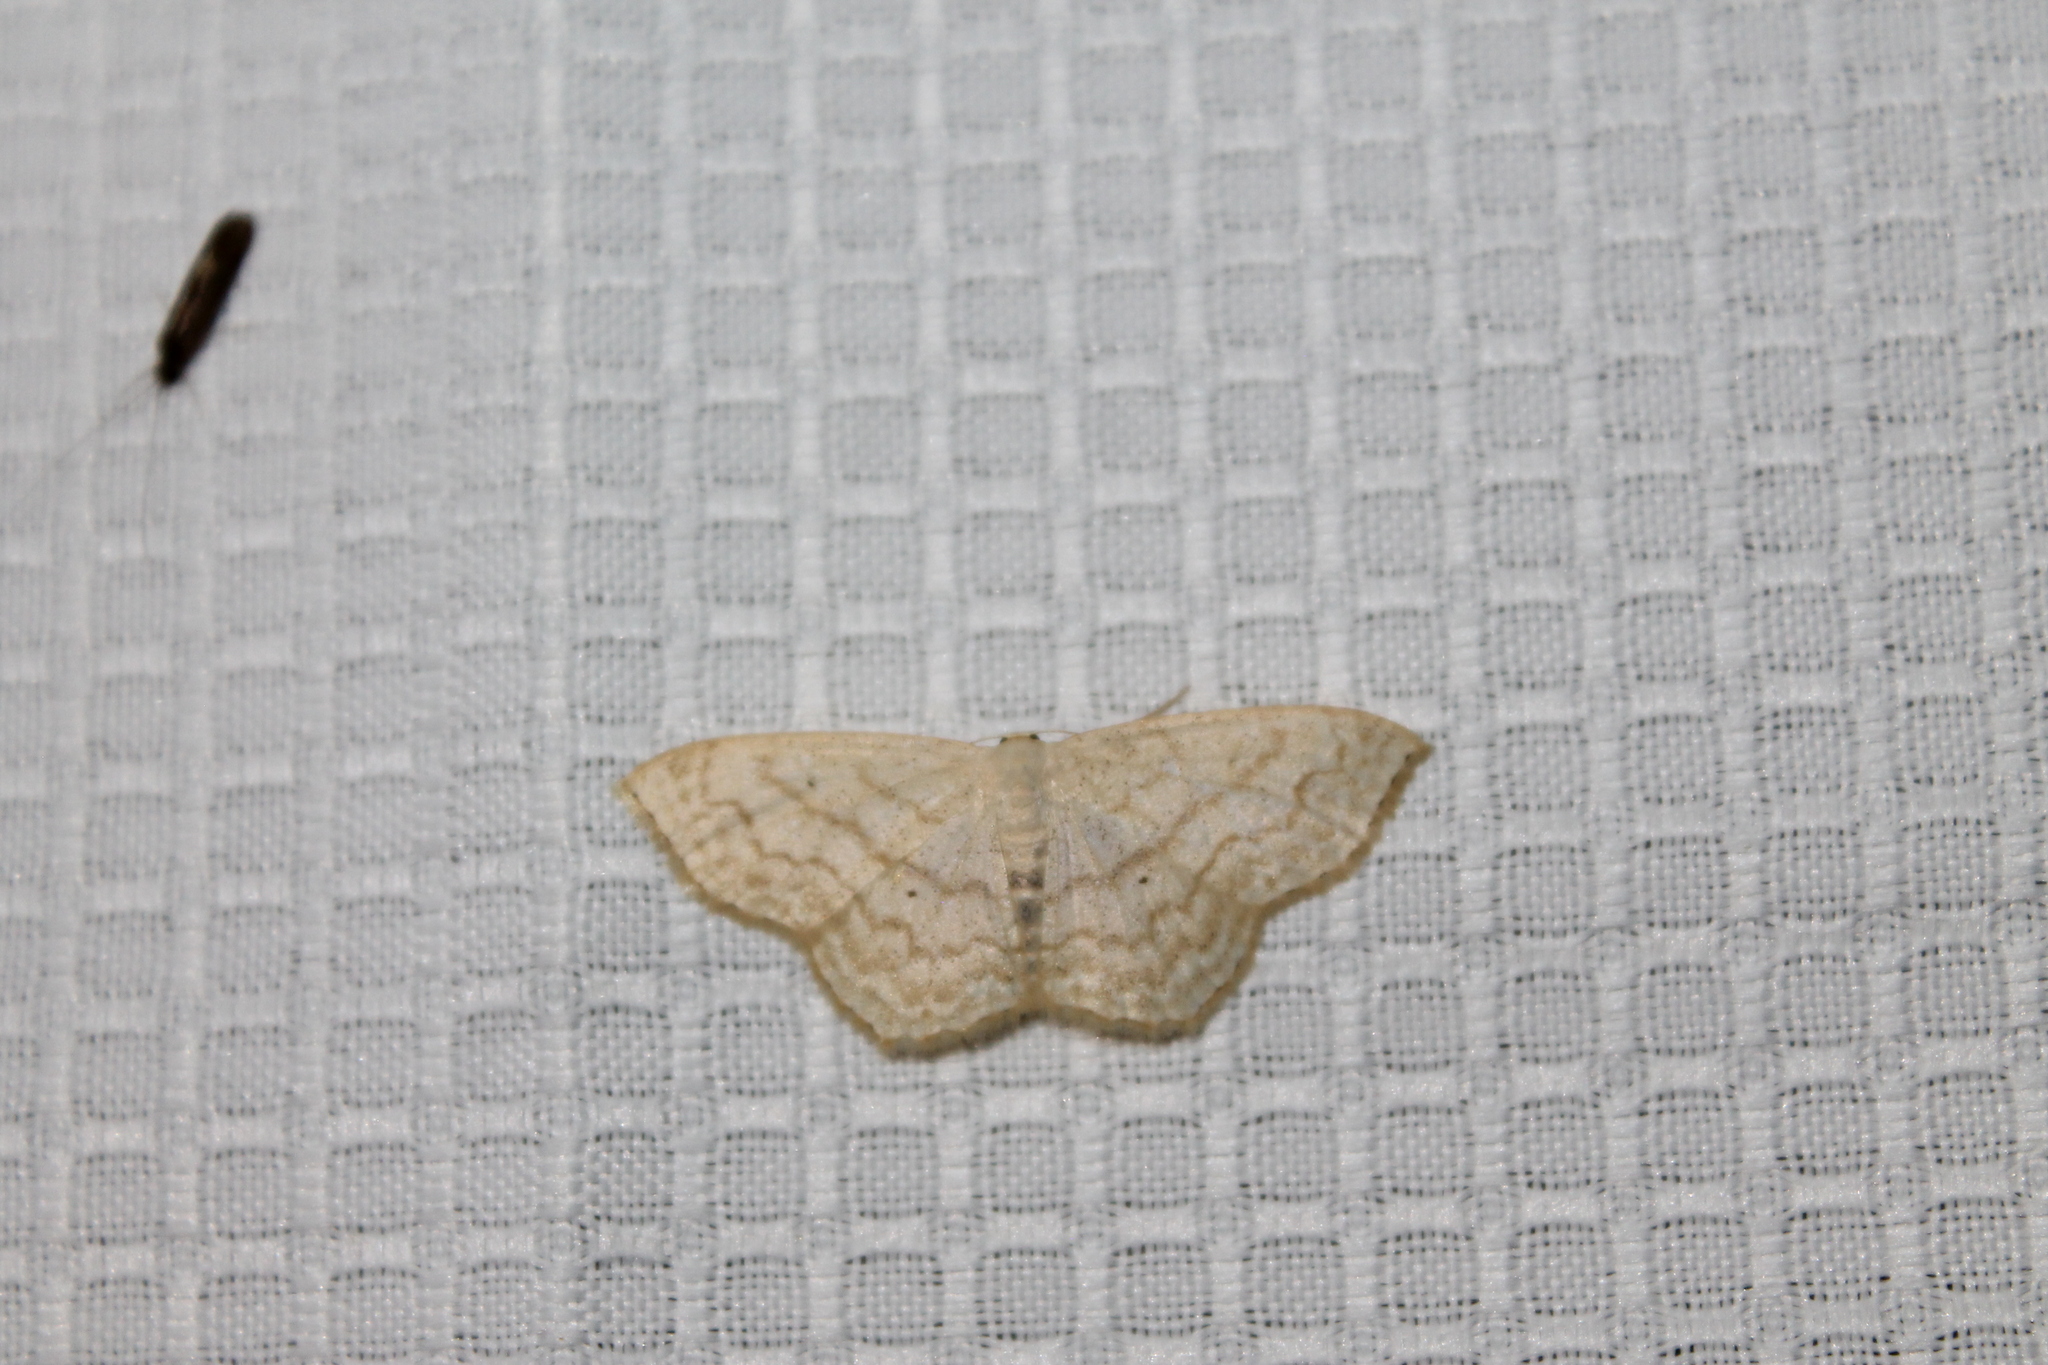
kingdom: Animalia
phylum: Arthropoda
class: Insecta
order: Lepidoptera
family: Geometridae
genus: Scopula
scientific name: Scopula limboundata
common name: Large lace border
